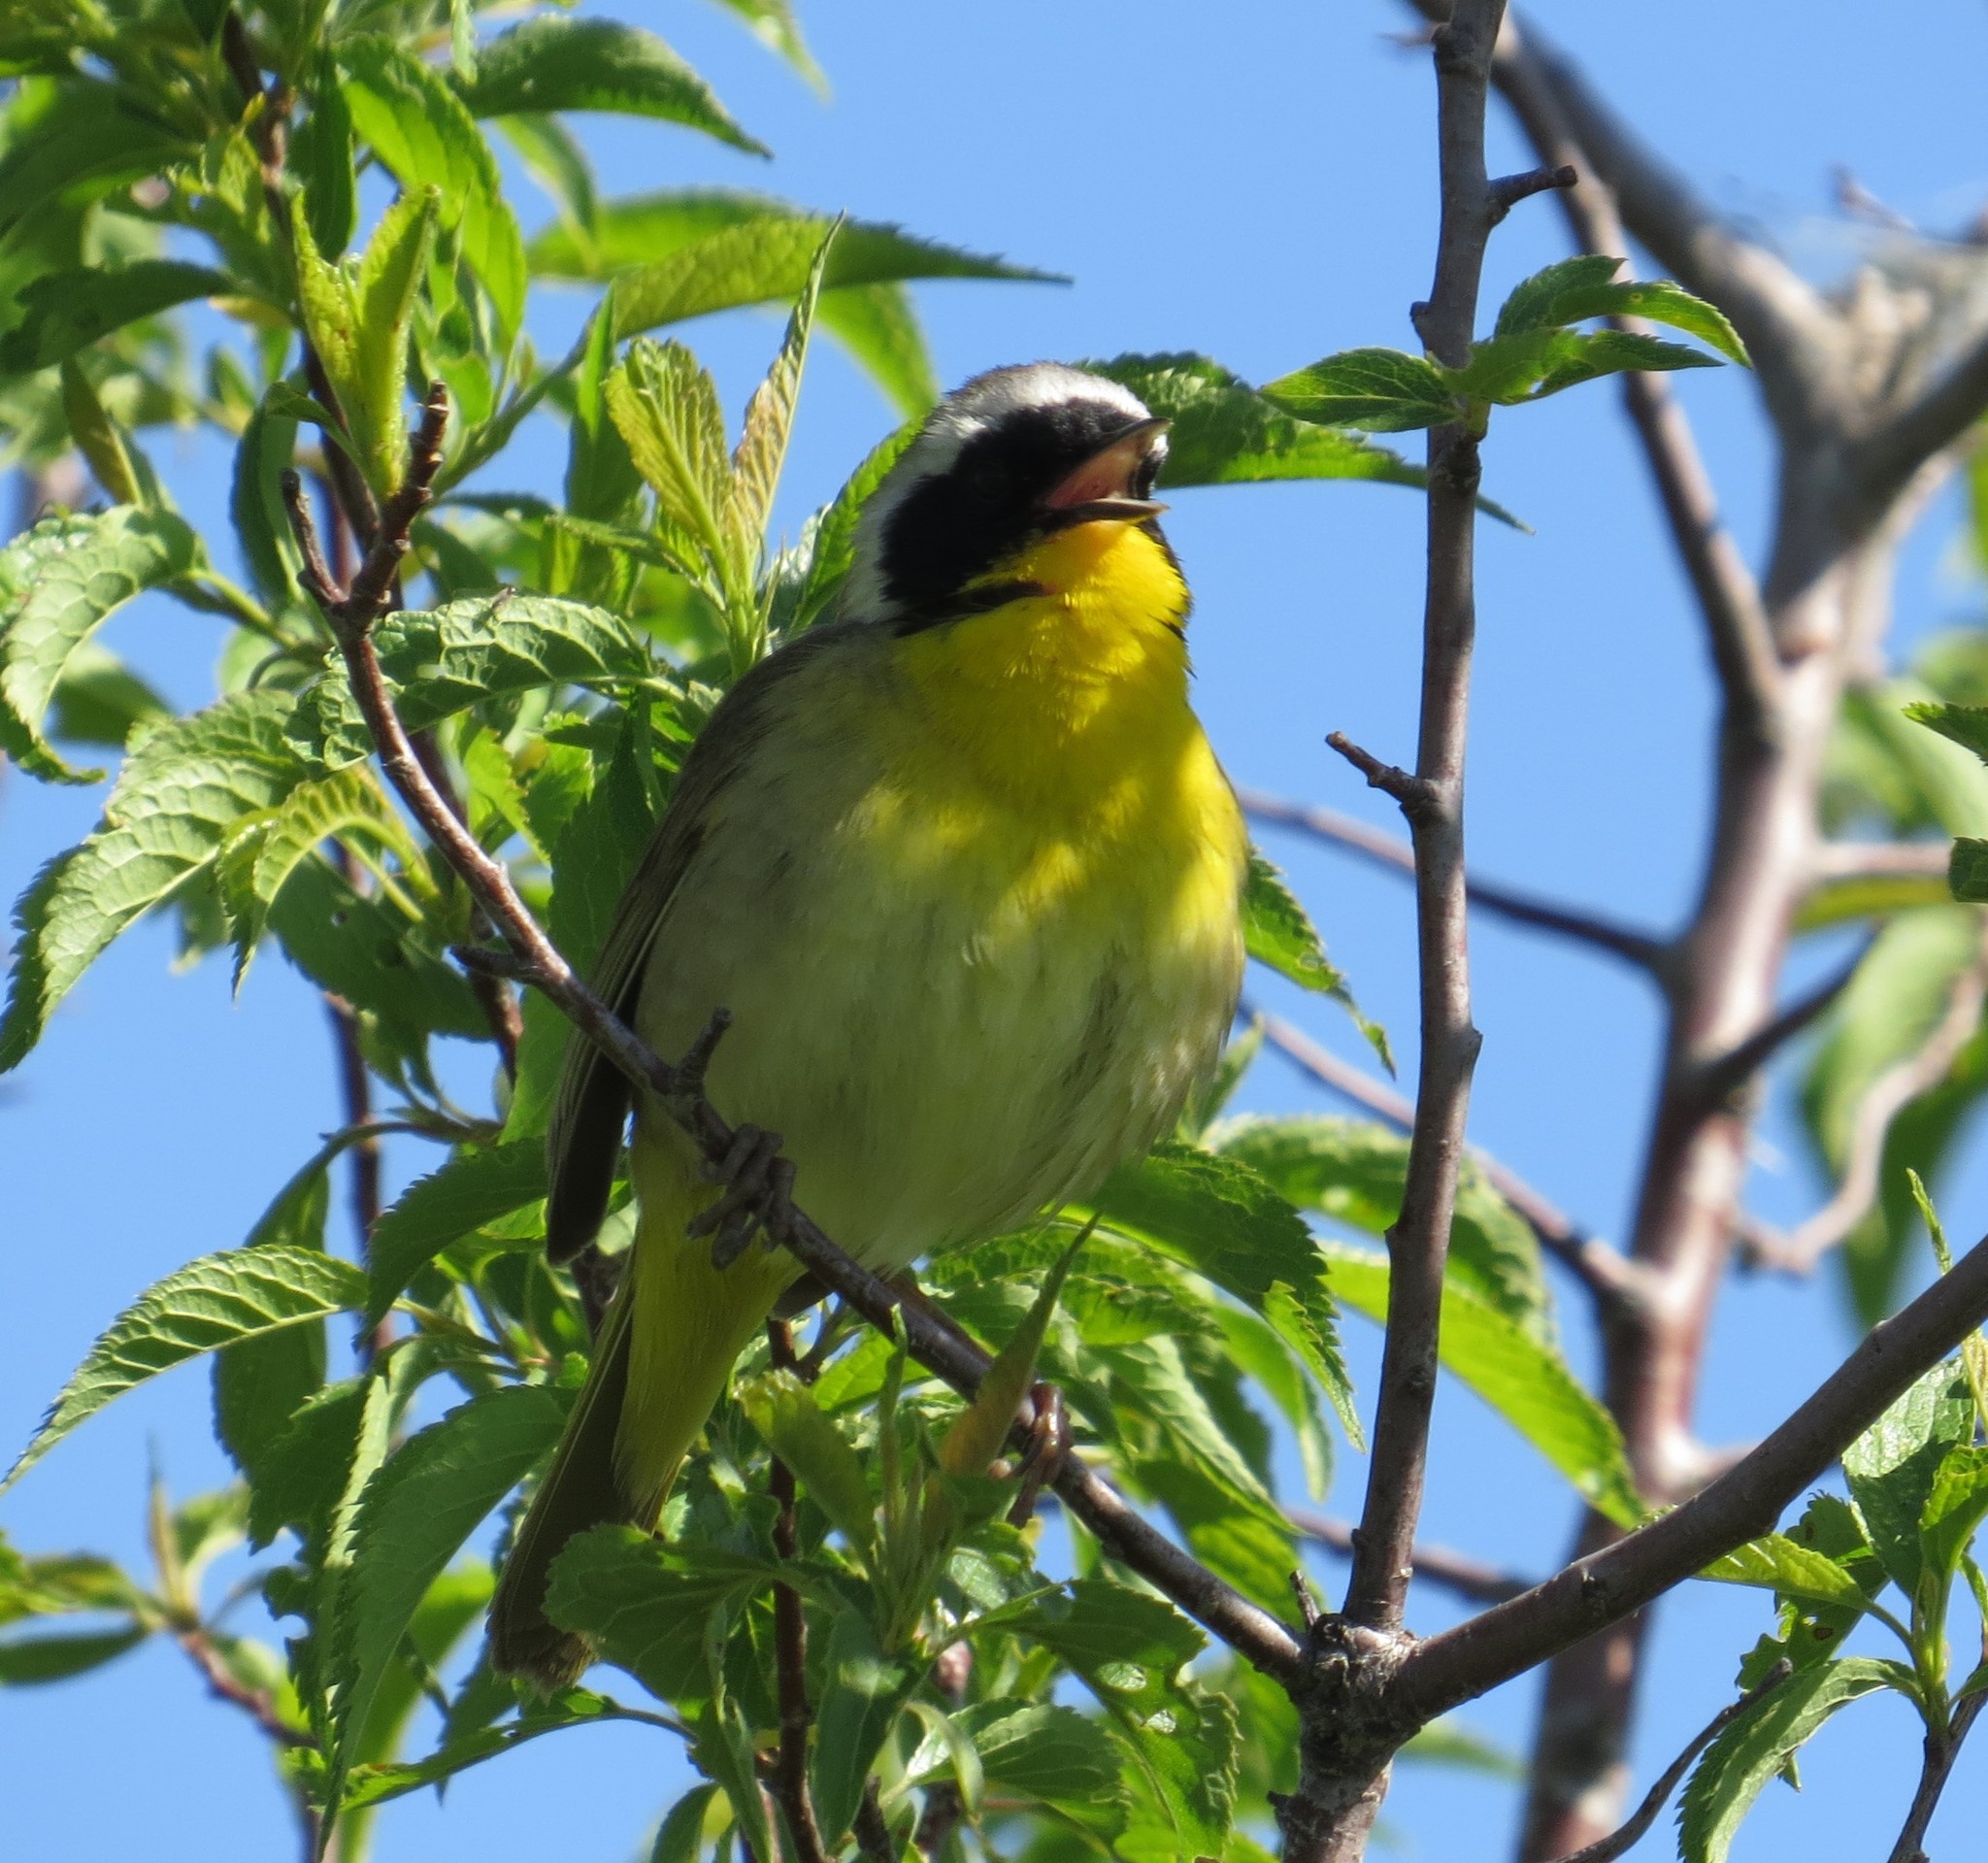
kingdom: Animalia
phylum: Chordata
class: Aves
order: Passeriformes
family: Parulidae
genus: Geothlypis
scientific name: Geothlypis trichas
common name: Common yellowthroat
